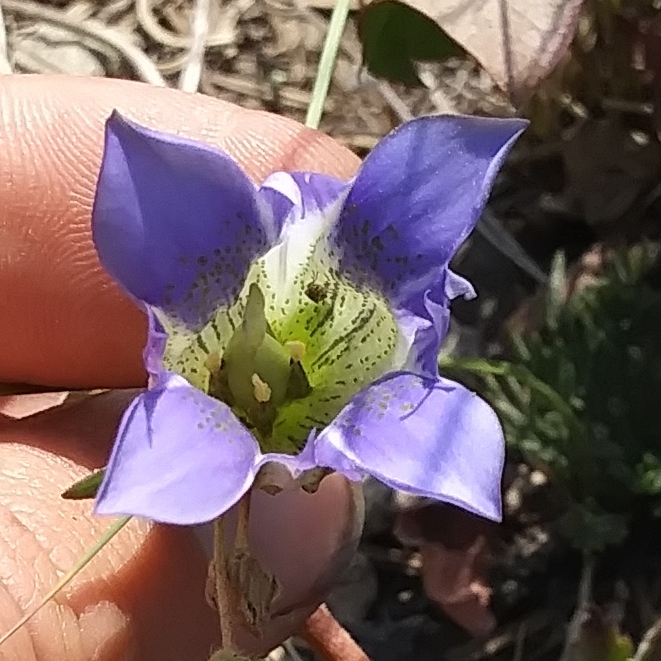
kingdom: Plantae
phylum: Tracheophyta
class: Magnoliopsida
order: Gentianales
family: Gentianaceae
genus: Gentiana
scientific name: Gentiana parryi
